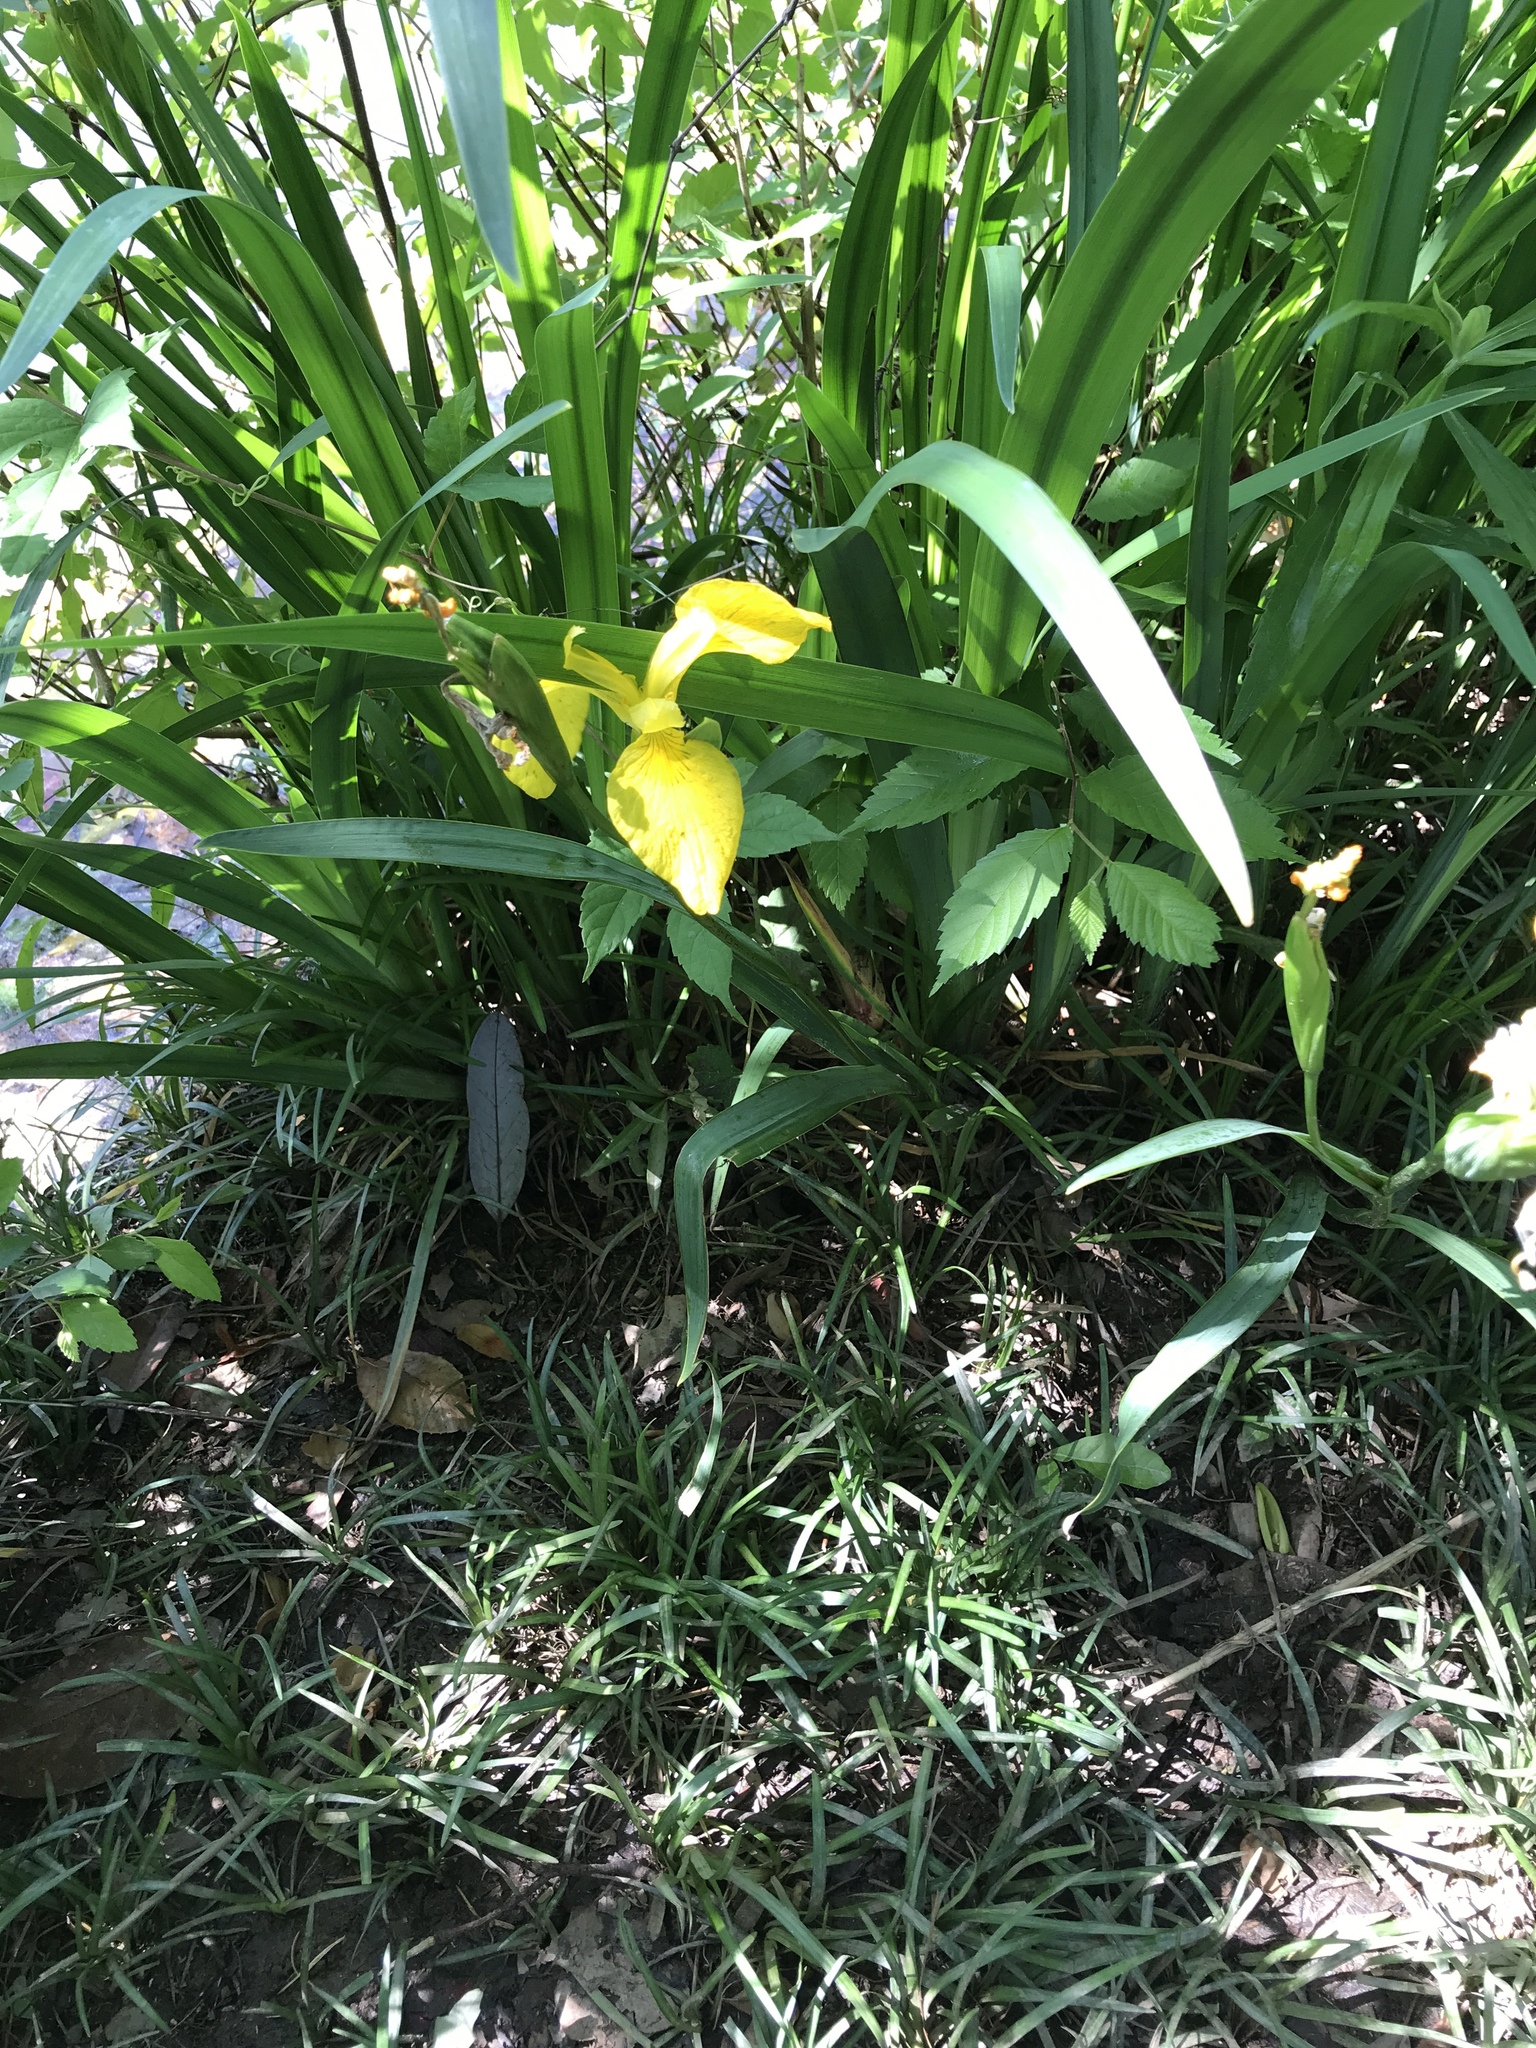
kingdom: Plantae
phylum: Tracheophyta
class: Liliopsida
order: Asparagales
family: Iridaceae
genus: Iris
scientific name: Iris pseudacorus
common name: Yellow flag
